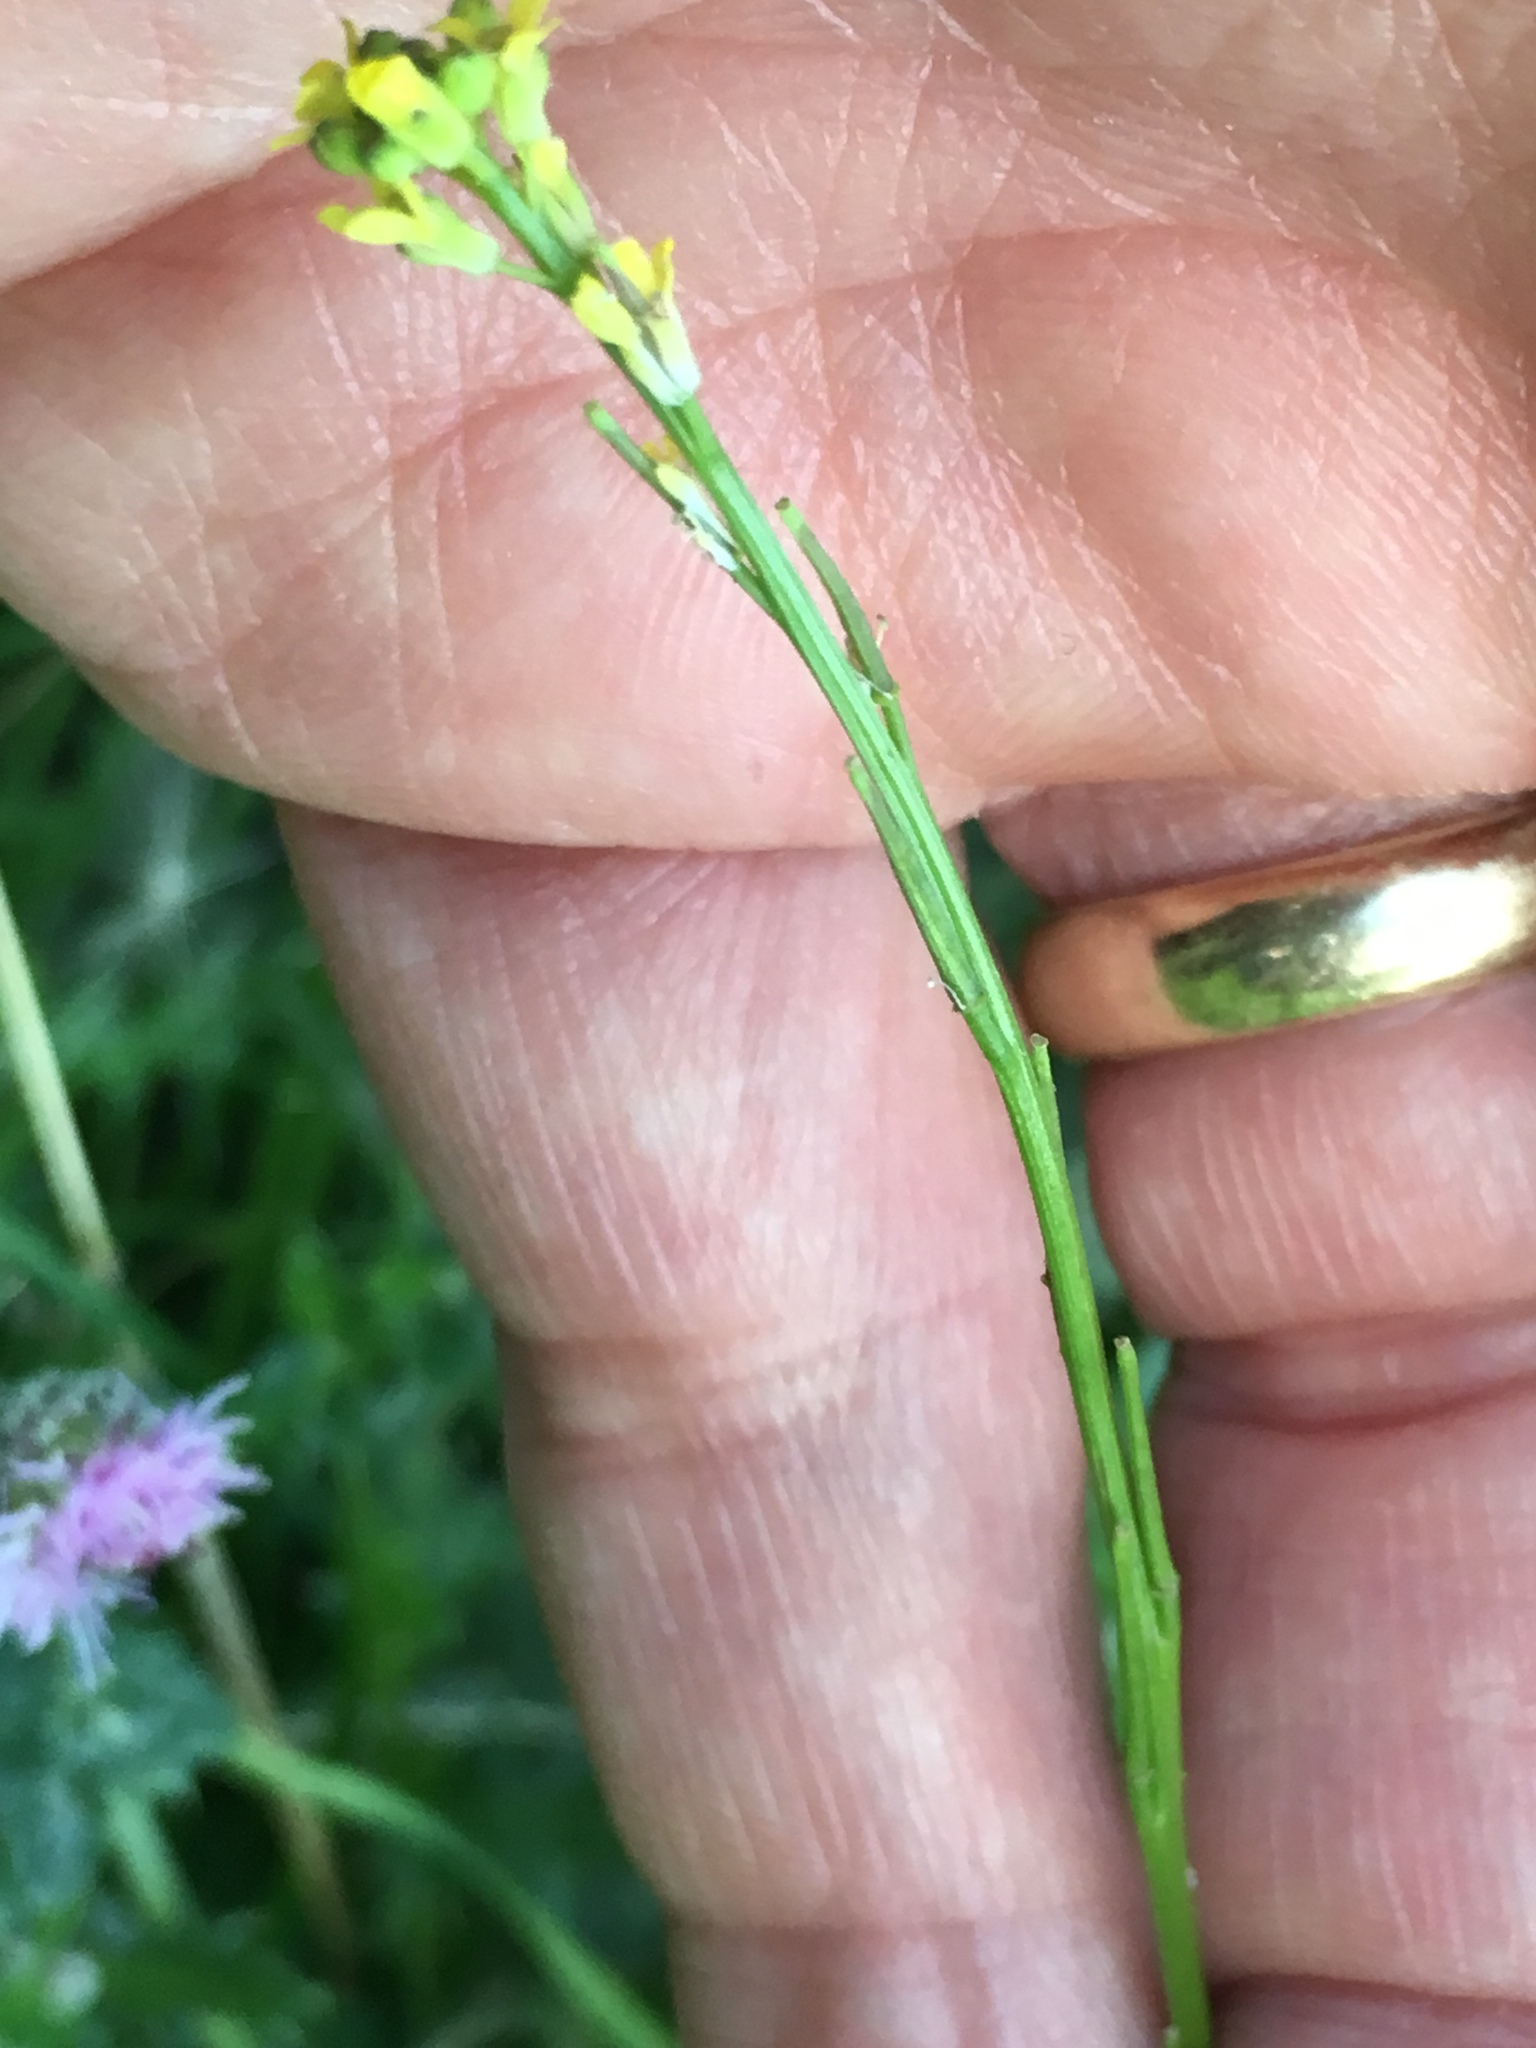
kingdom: Plantae
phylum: Tracheophyta
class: Magnoliopsida
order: Brassicales
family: Brassicaceae
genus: Sisymbrium
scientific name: Sisymbrium officinale
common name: Hedge mustard
